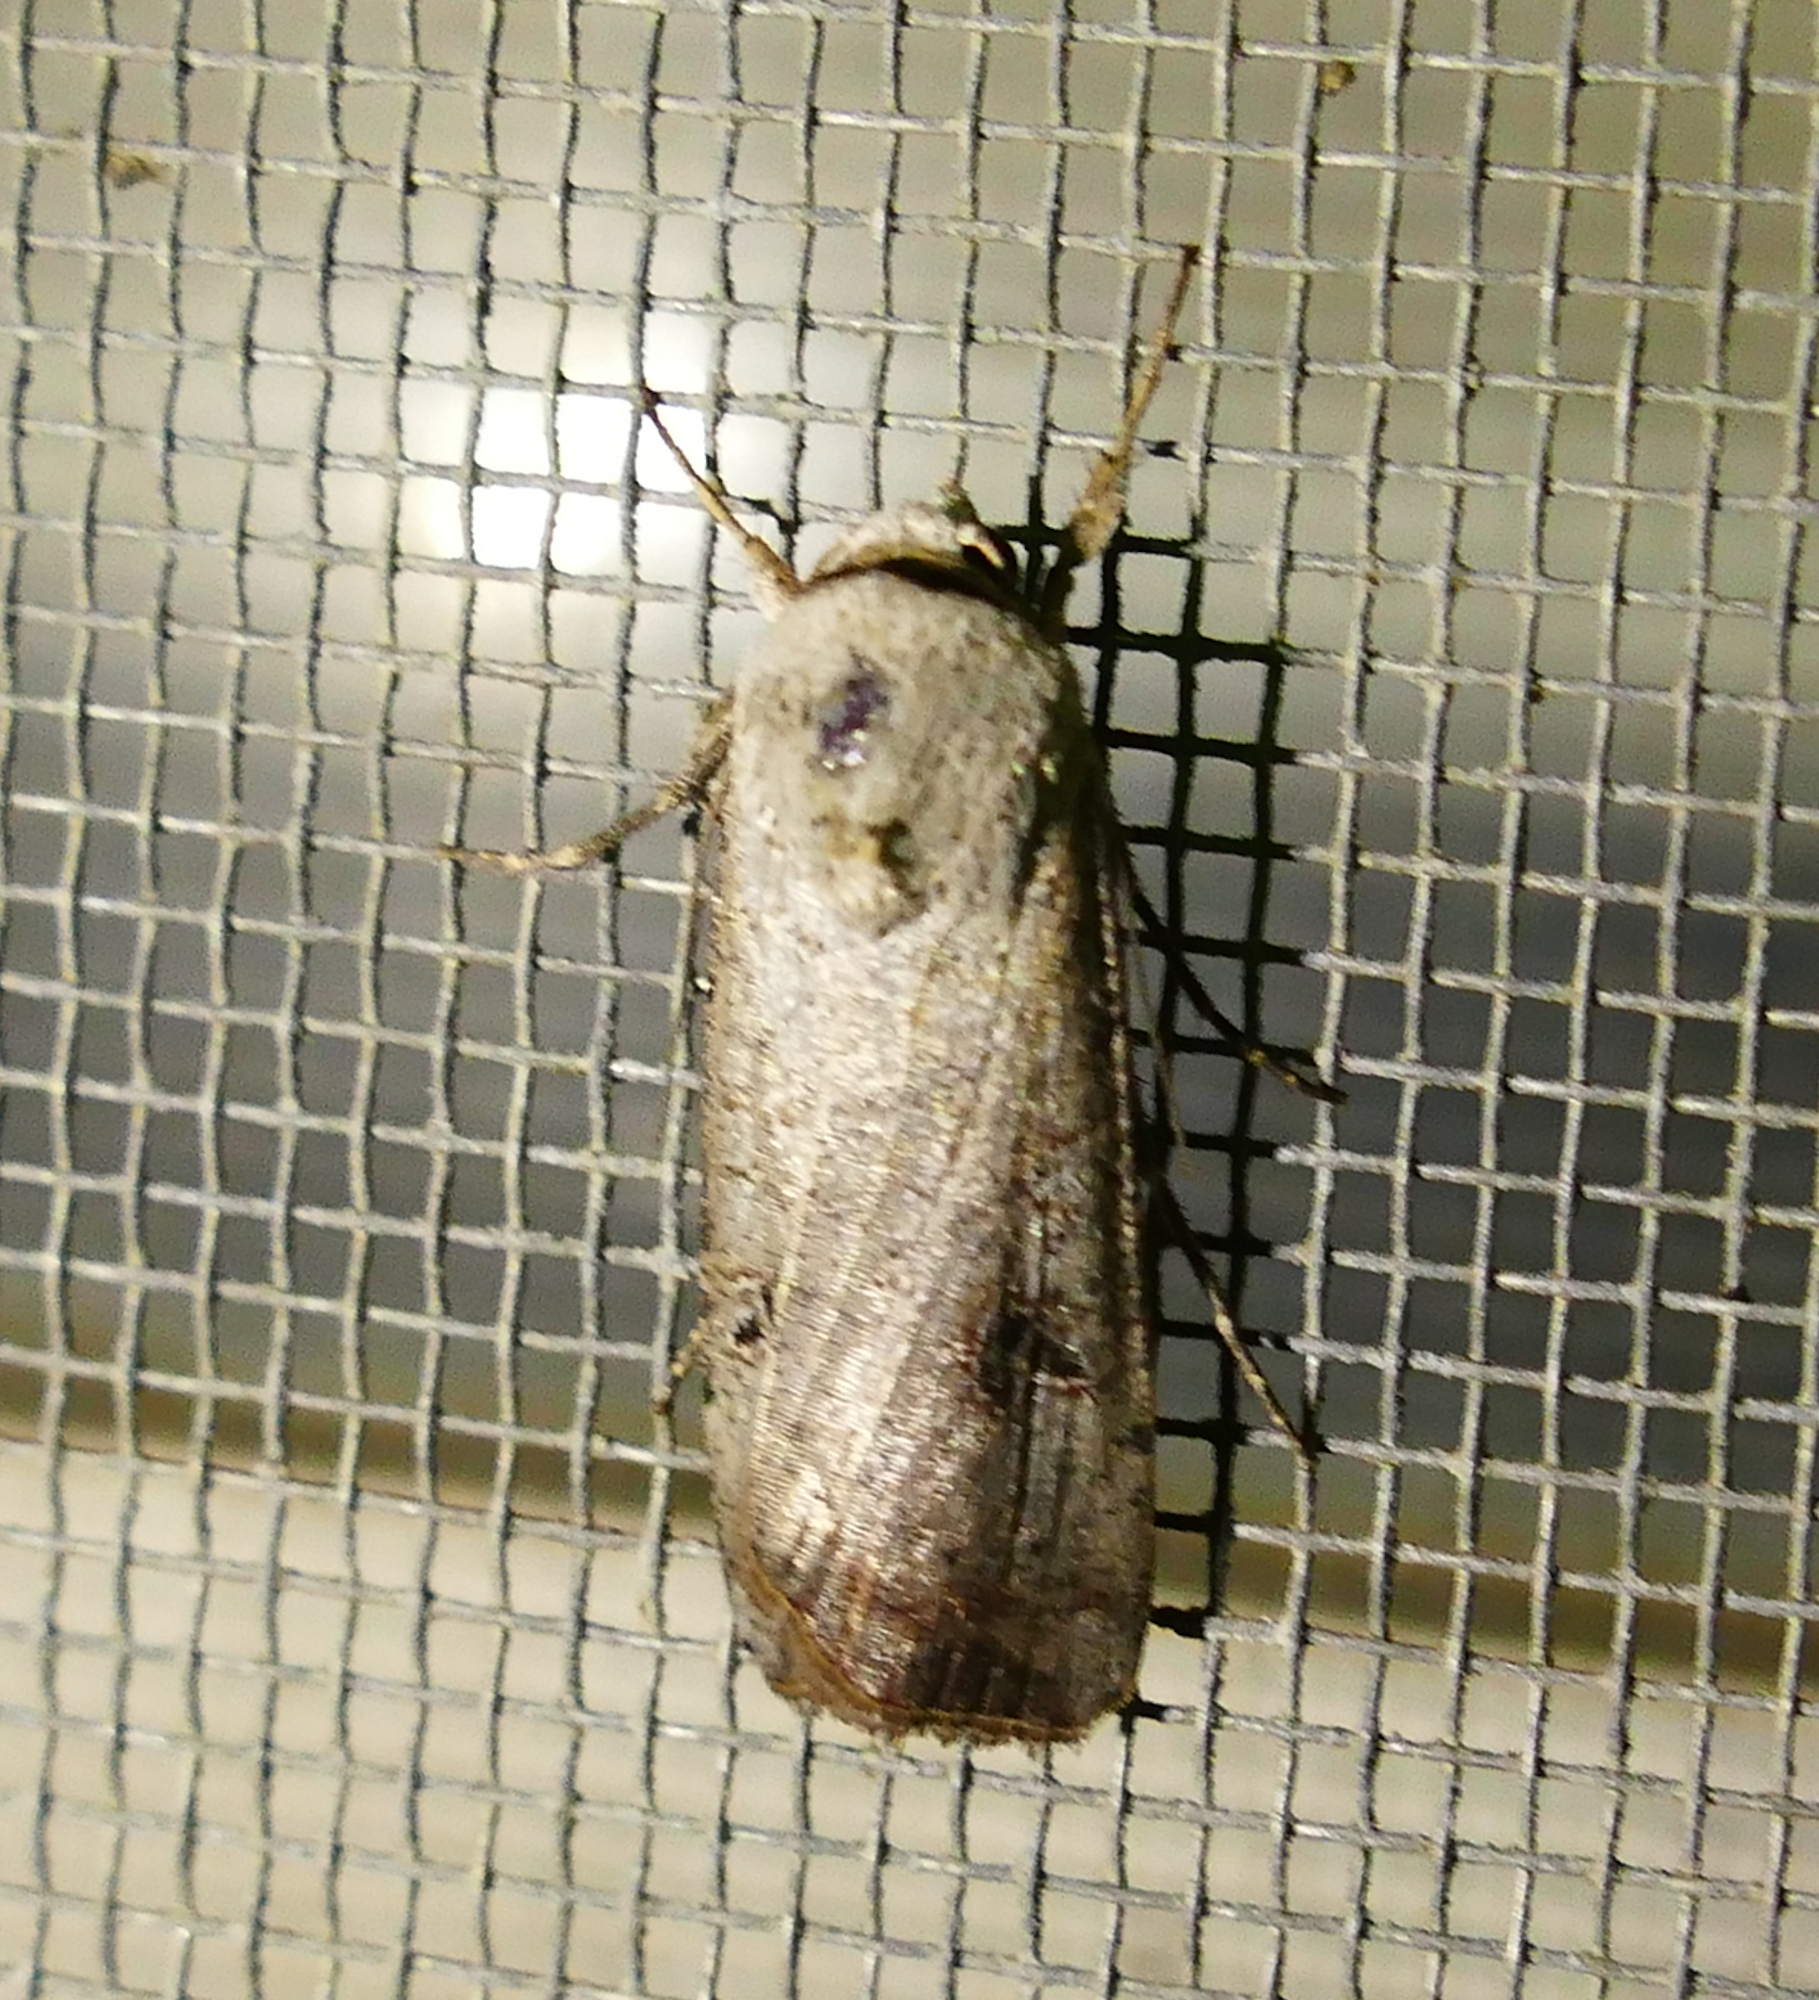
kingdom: Animalia
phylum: Arthropoda
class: Insecta
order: Lepidoptera
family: Noctuidae
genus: Anicla
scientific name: Anicla infecta
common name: Green cutworm
